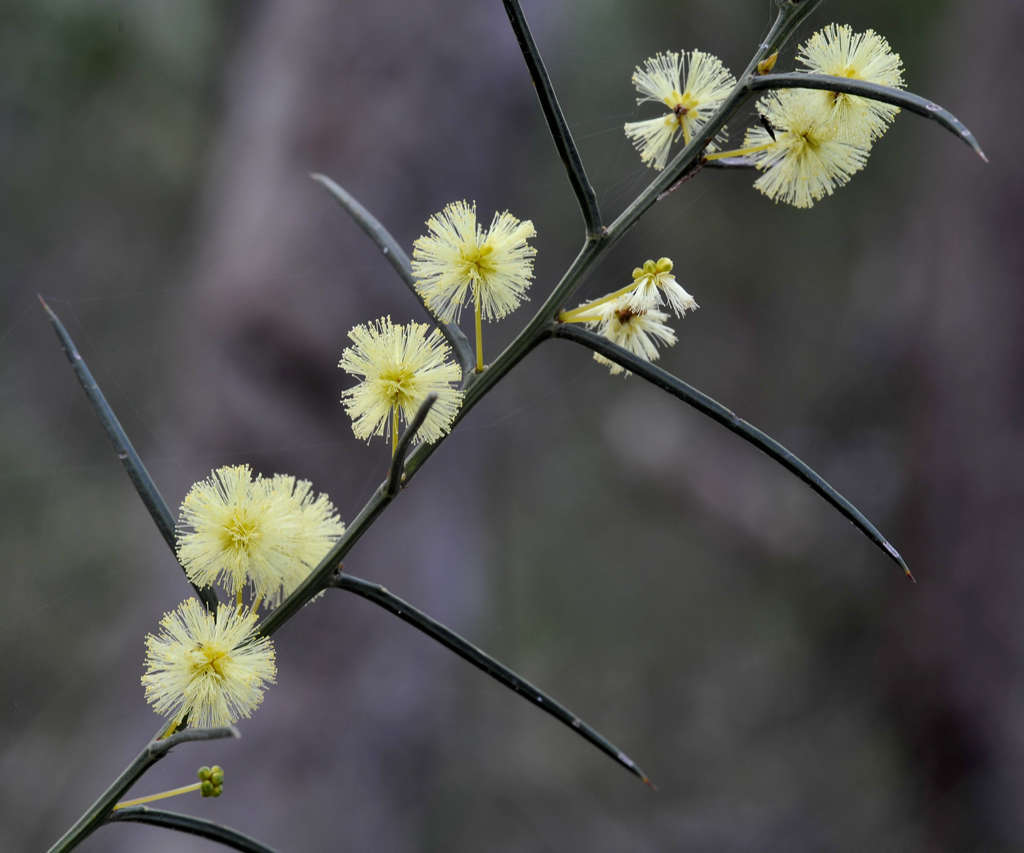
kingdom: Plantae
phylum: Tracheophyta
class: Magnoliopsida
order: Fabales
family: Fabaceae
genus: Acacia
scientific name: Acacia genistifolia
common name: Early wattle
